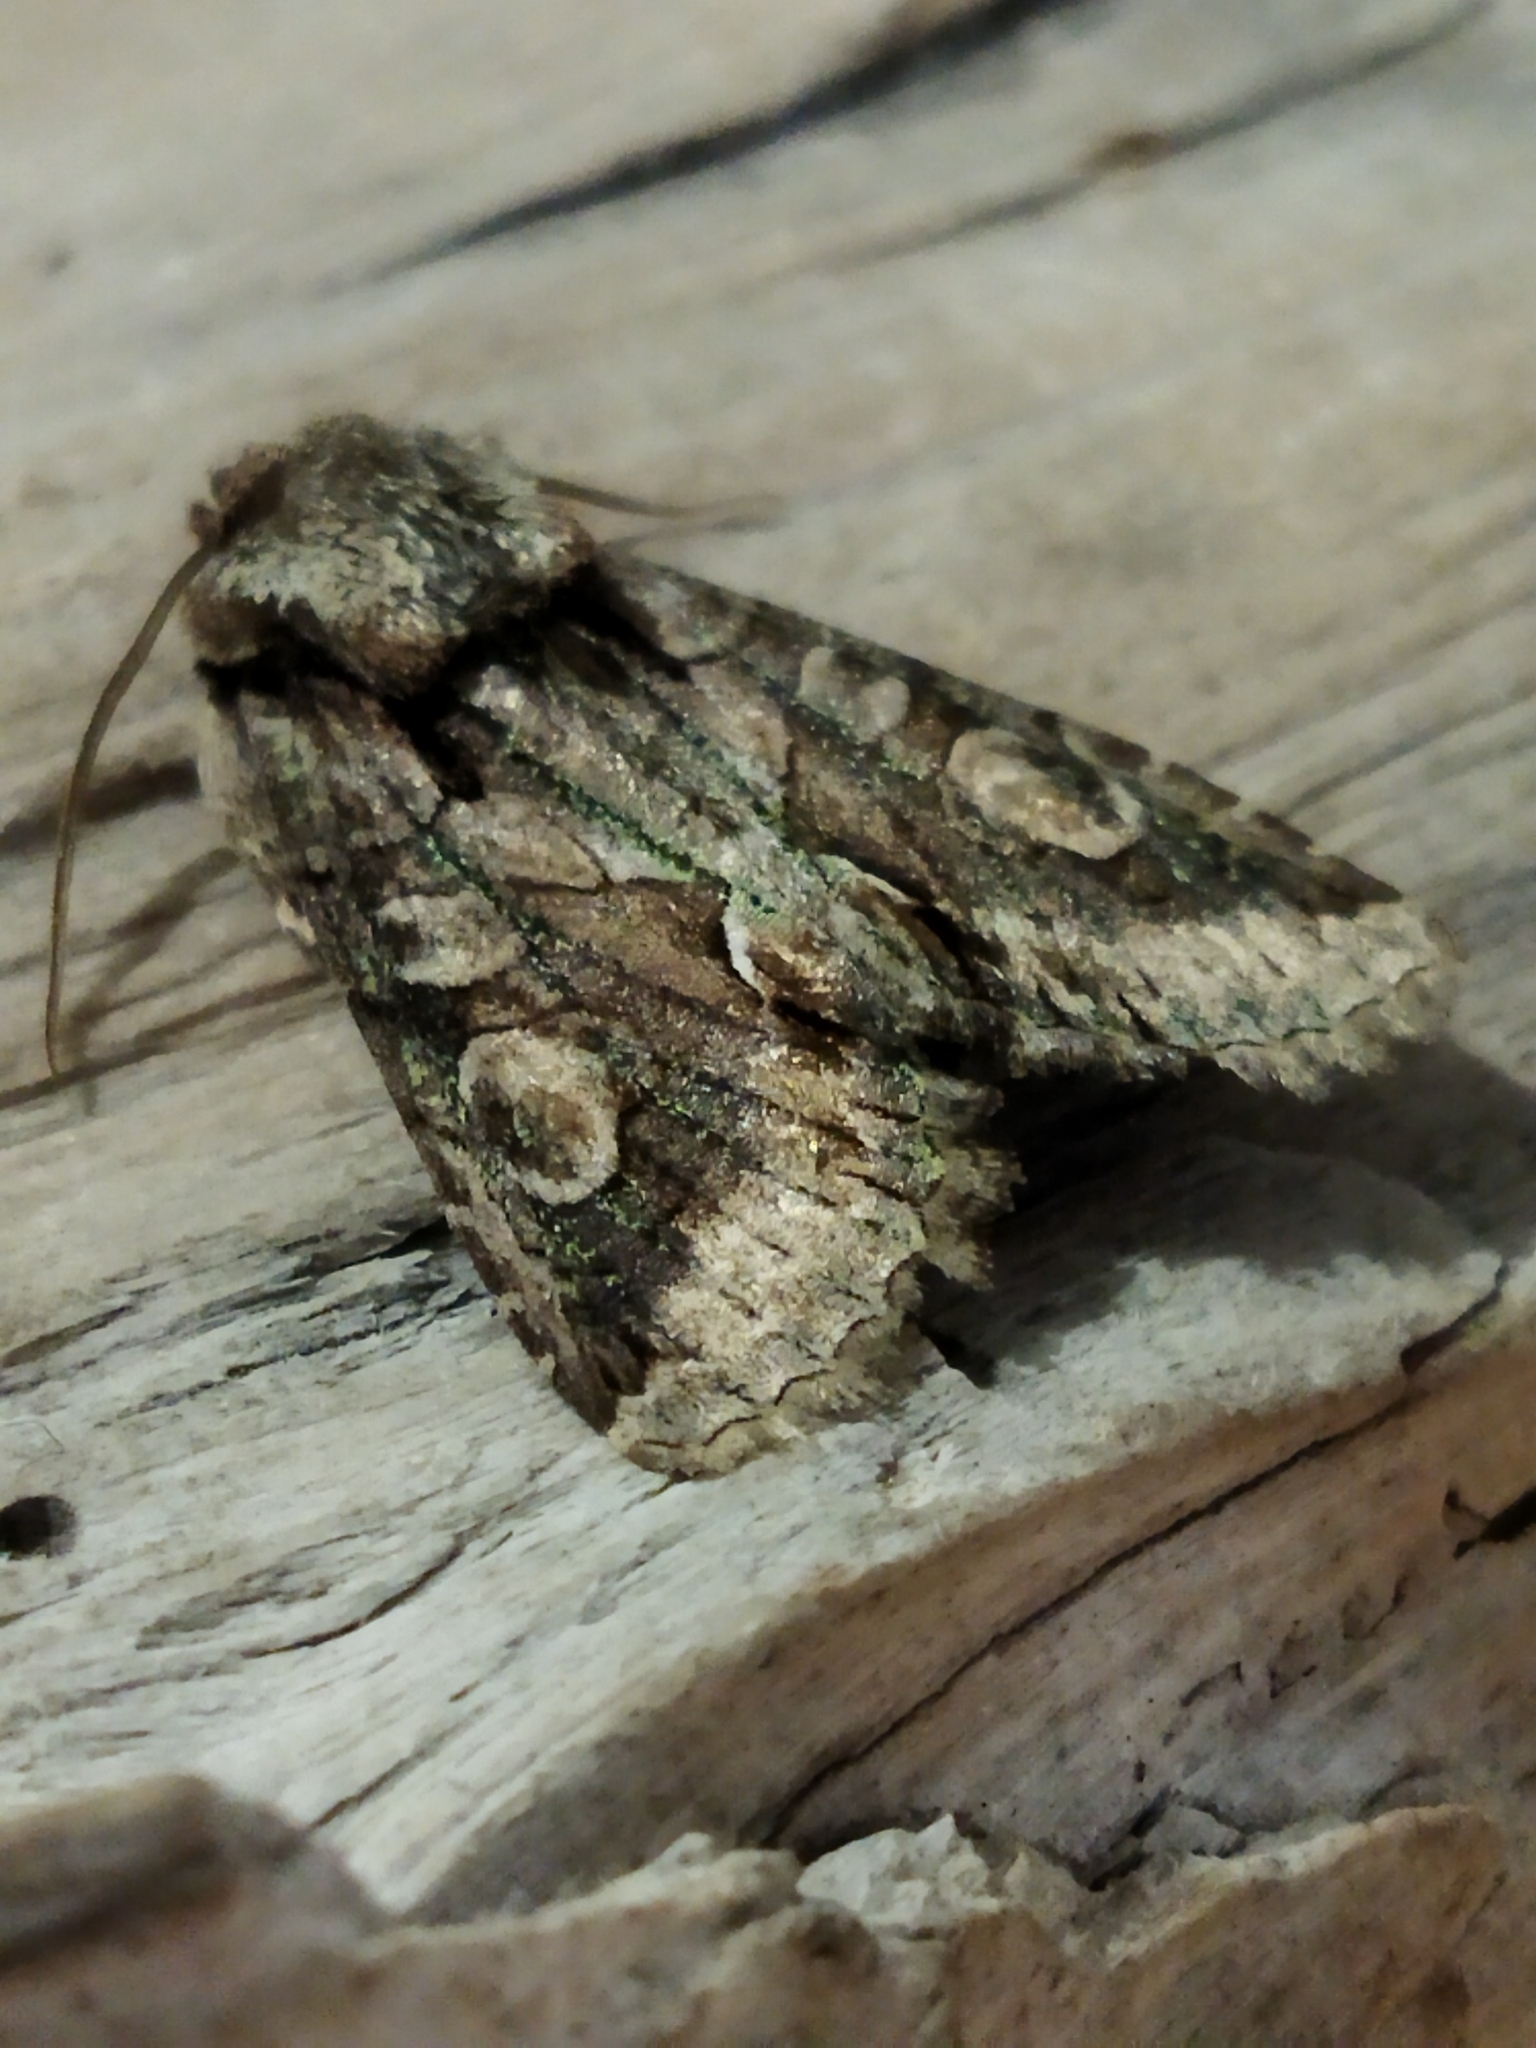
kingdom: Animalia
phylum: Arthropoda
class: Insecta
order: Lepidoptera
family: Noctuidae
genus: Allophyes
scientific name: Allophyes oxyacanthae
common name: Green-brindled crescent
